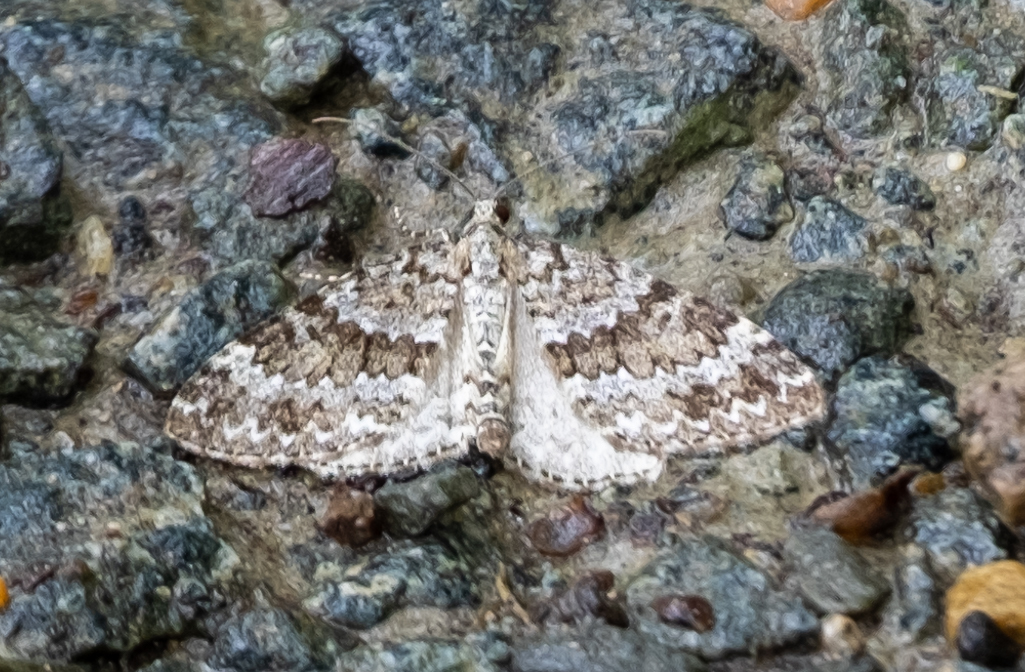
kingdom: Animalia
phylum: Arthropoda
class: Insecta
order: Lepidoptera
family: Geometridae
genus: Entephria
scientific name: Entephria caesiata
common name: Grey mountain moth
